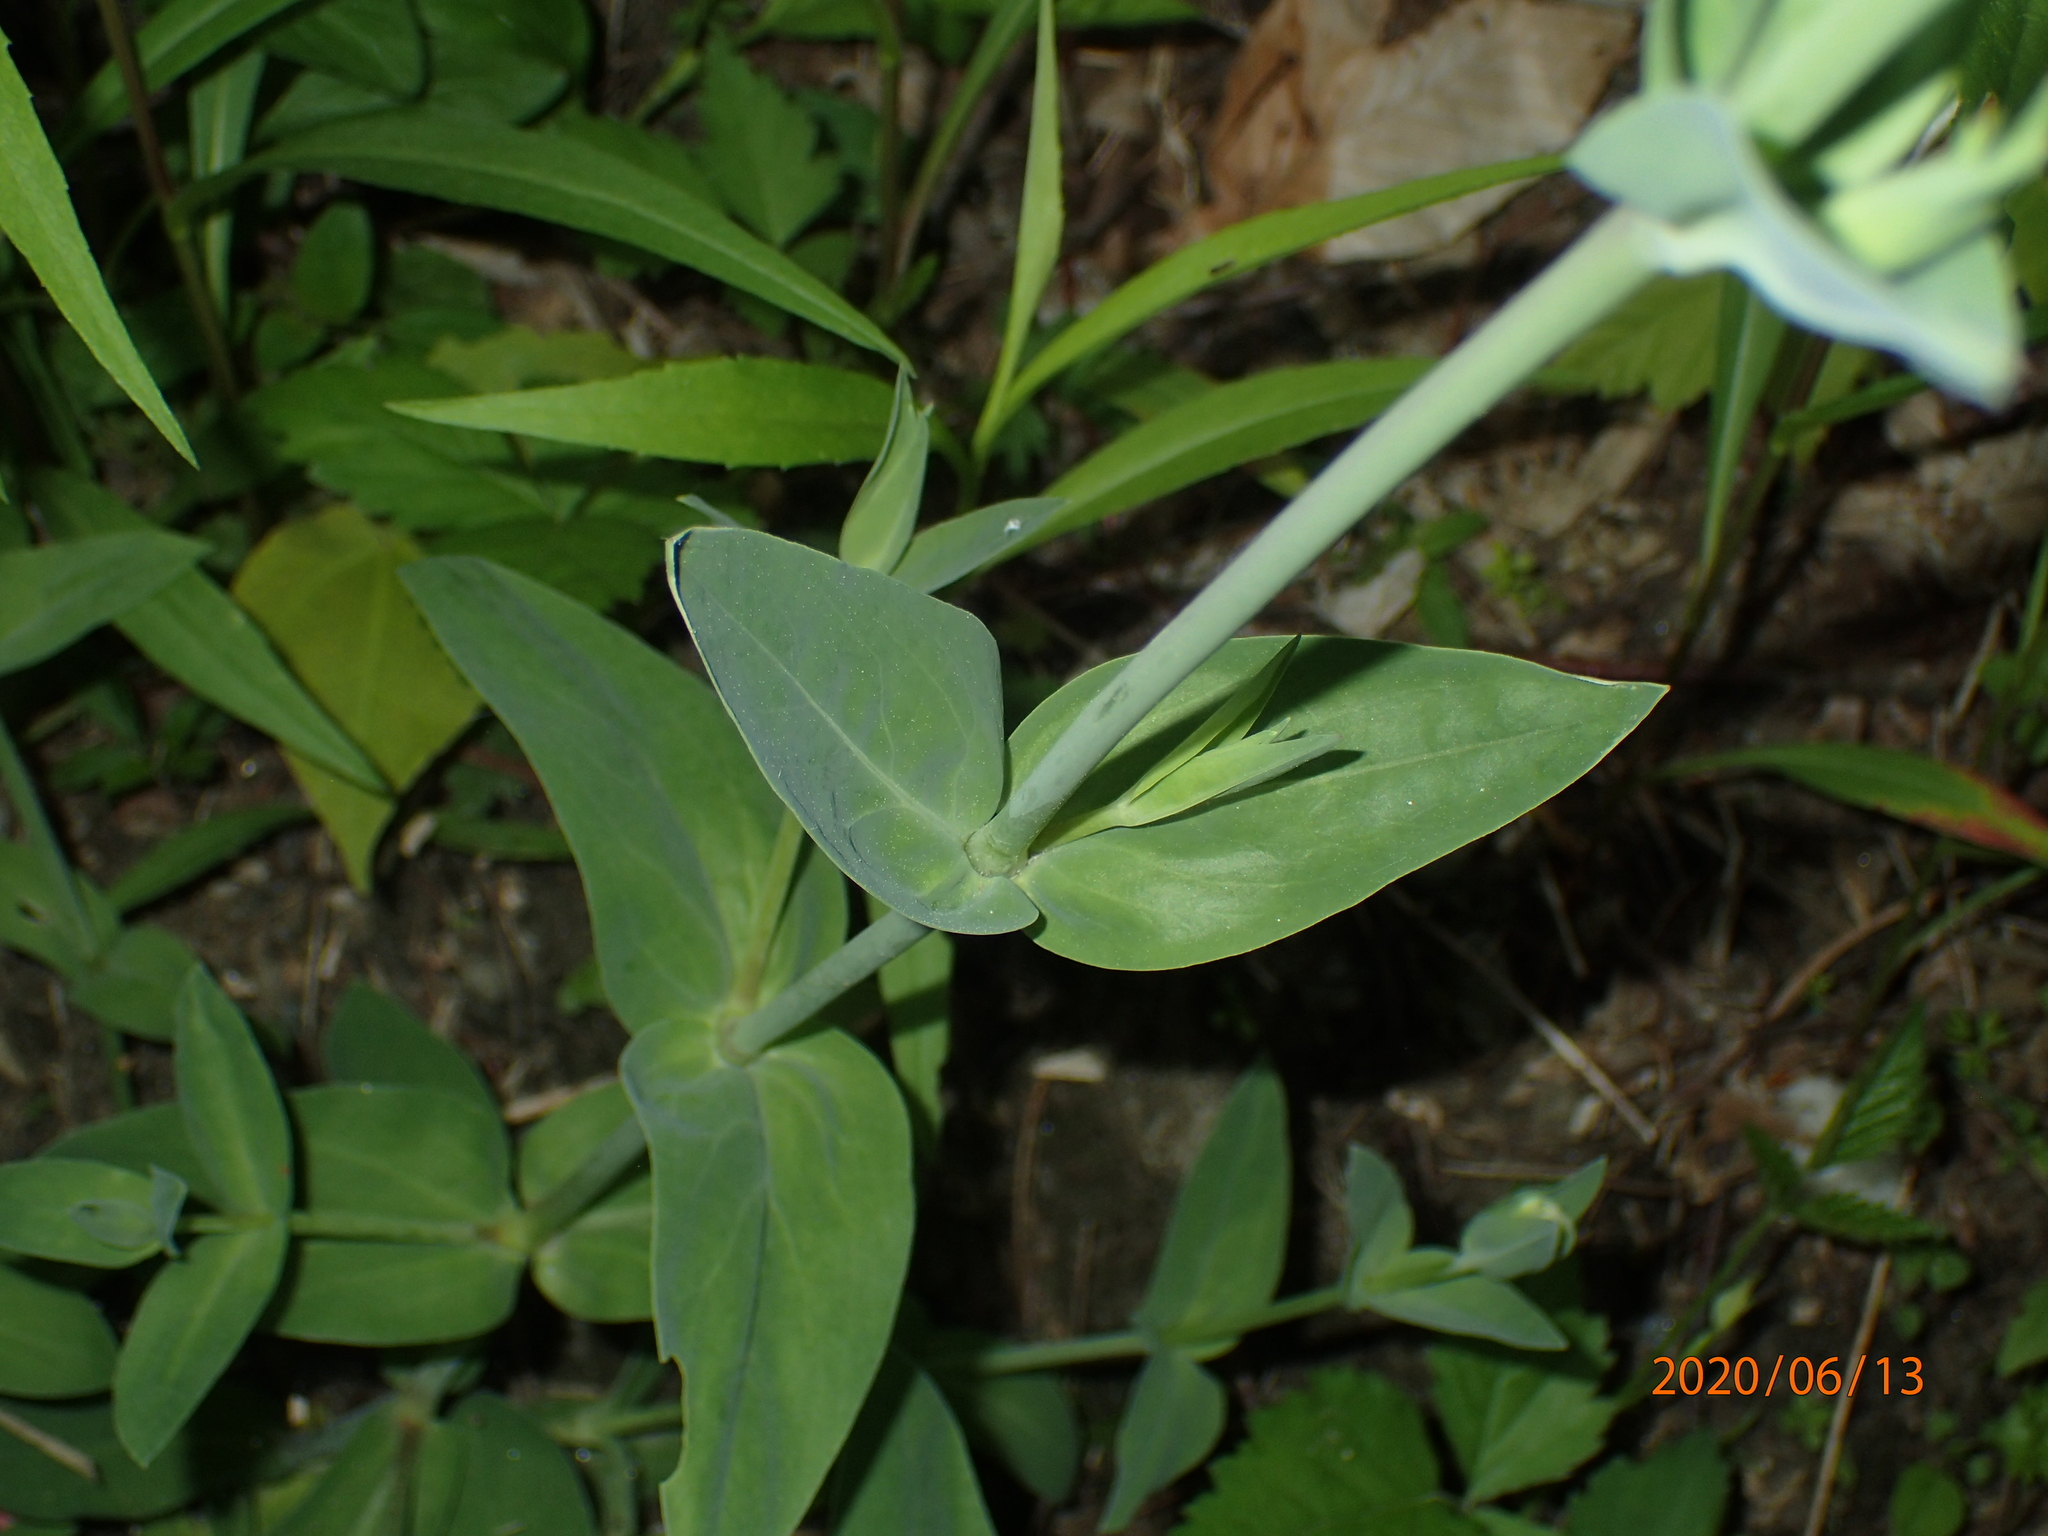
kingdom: Plantae
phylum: Tracheophyta
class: Magnoliopsida
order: Caryophyllales
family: Caryophyllaceae
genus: Silene
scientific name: Silene vulgaris
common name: Bladder campion
